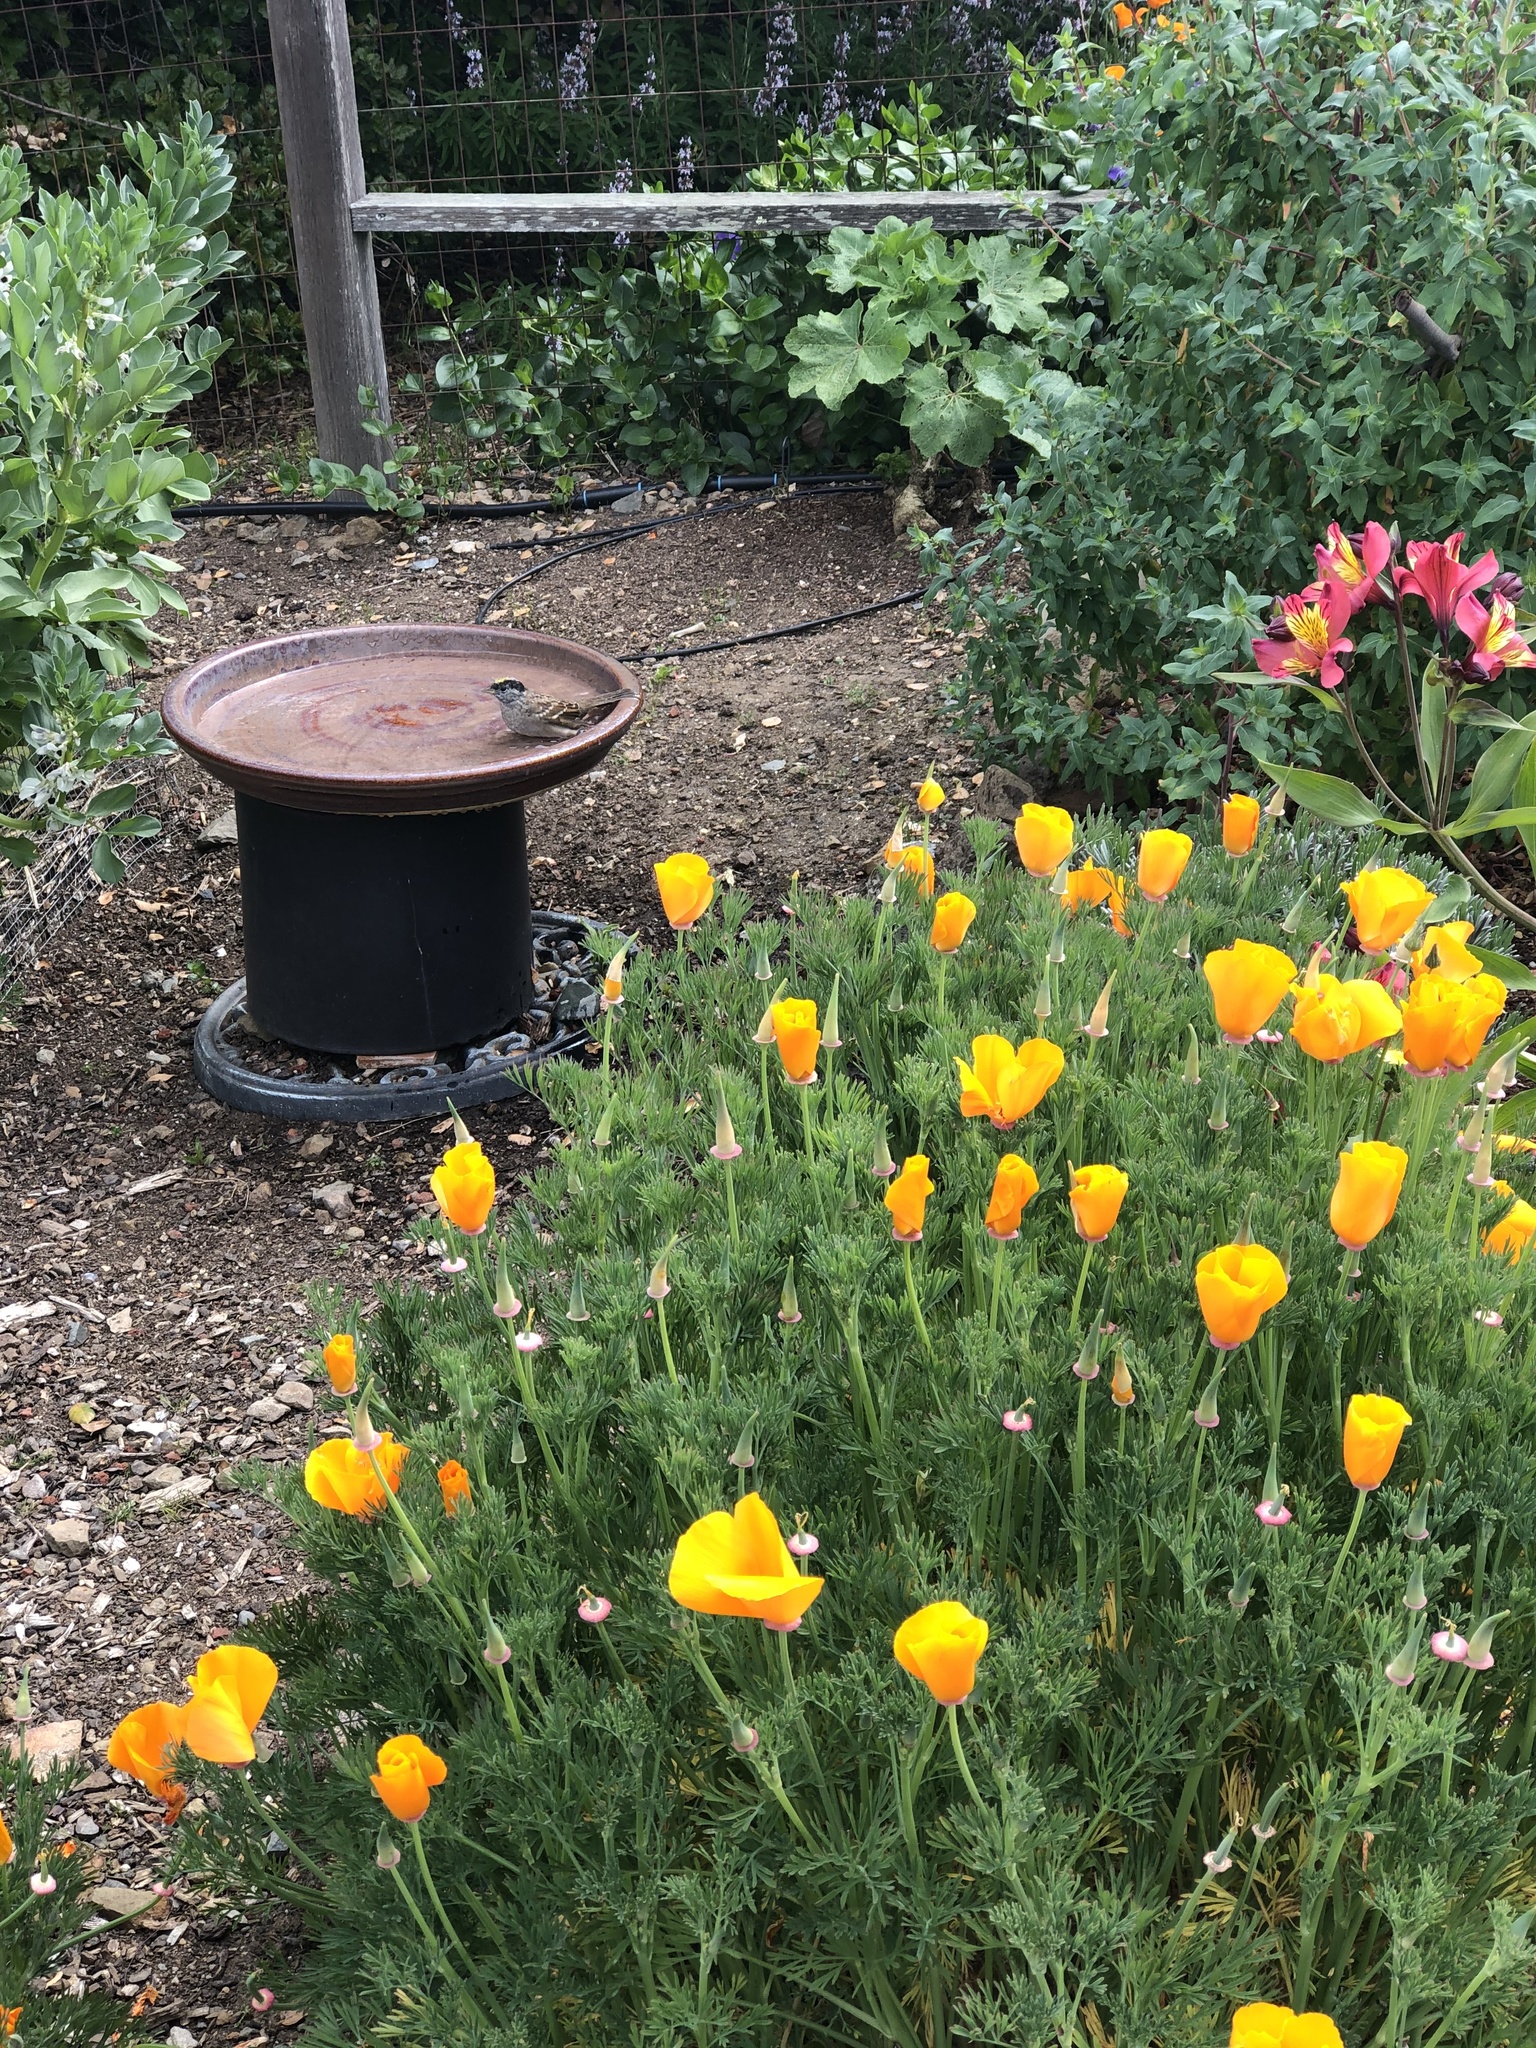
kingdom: Animalia
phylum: Chordata
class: Aves
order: Passeriformes
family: Passerellidae
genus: Zonotrichia
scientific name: Zonotrichia atricapilla
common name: Golden-crowned sparrow
